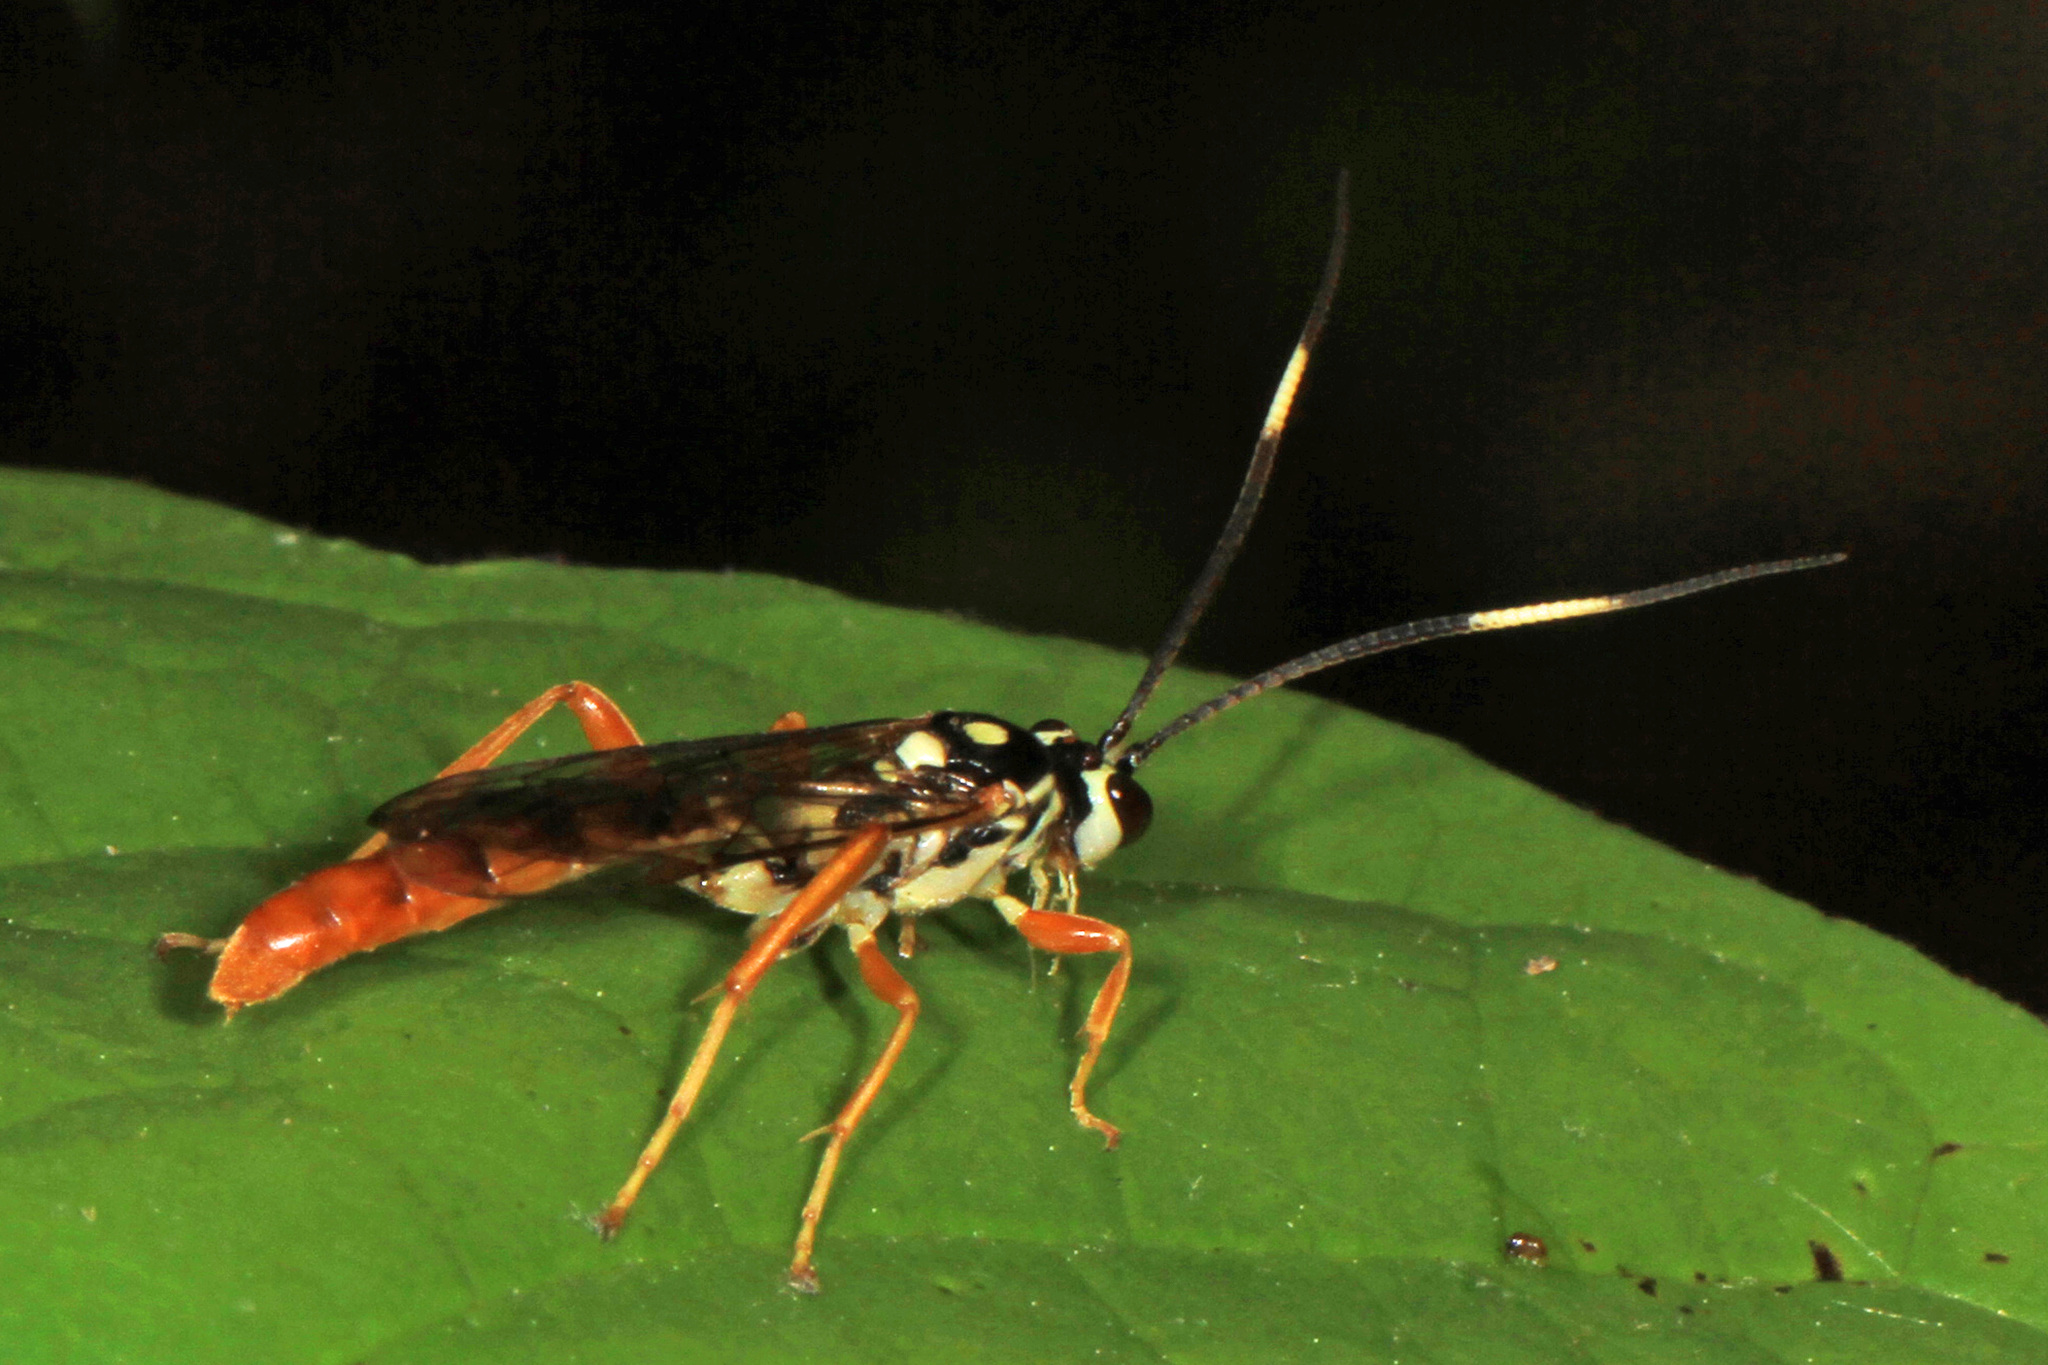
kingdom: Animalia
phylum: Arthropoda
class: Insecta
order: Hymenoptera
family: Ichneumonidae
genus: Cratichneumon
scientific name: Cratichneumon w-album
